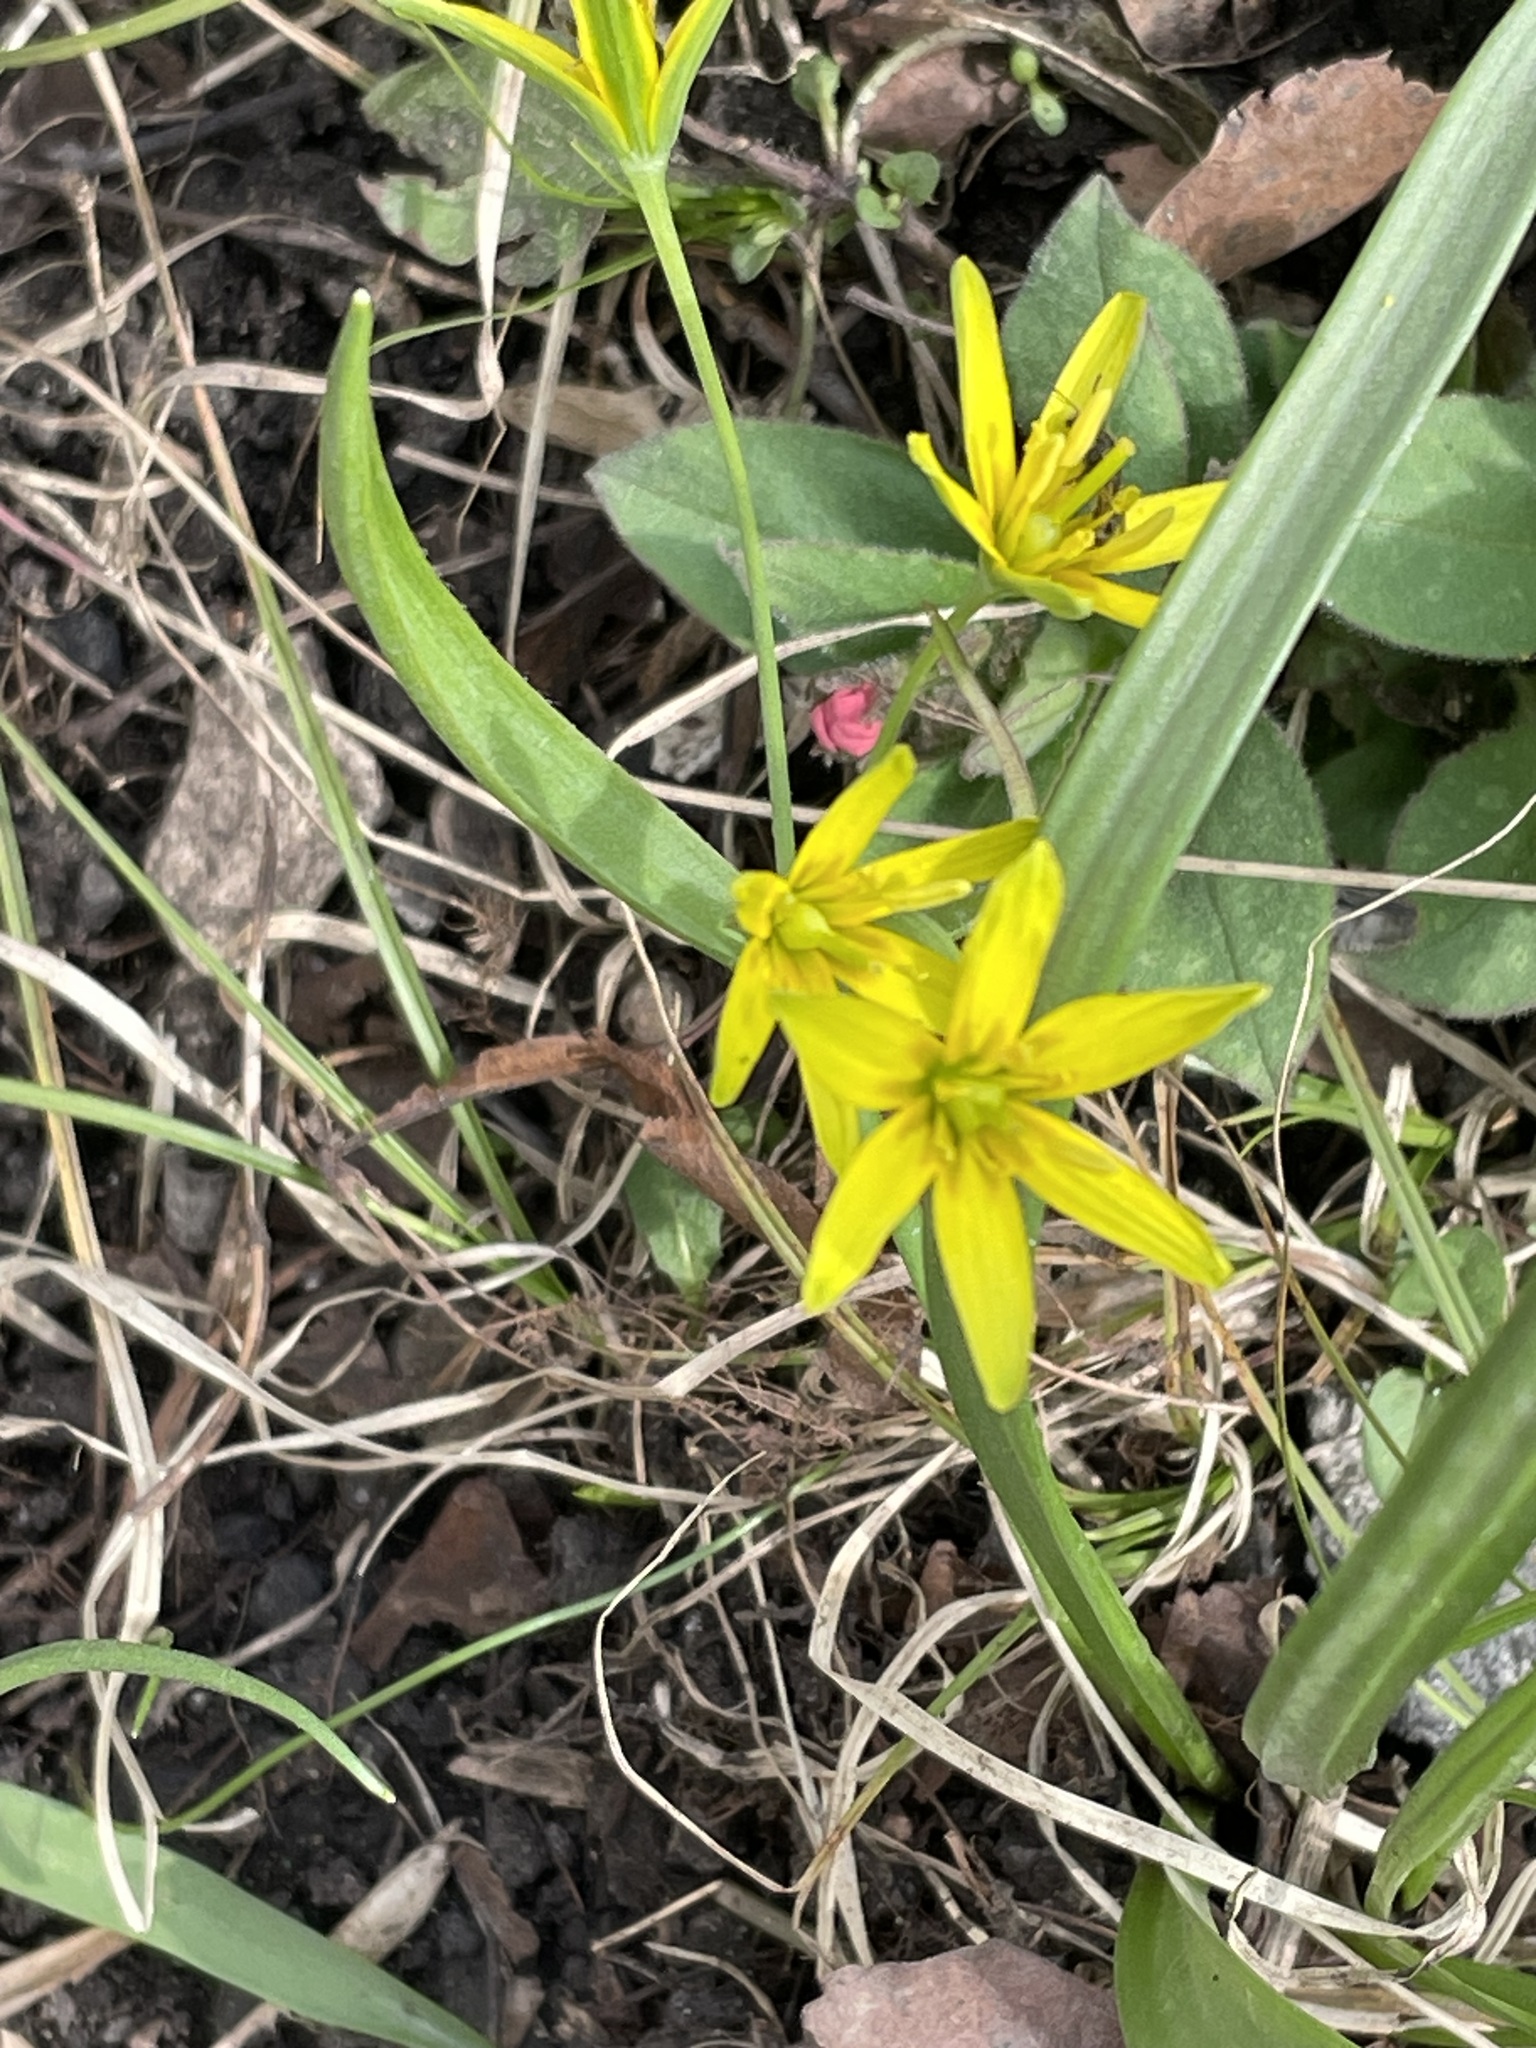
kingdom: Plantae
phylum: Tracheophyta
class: Liliopsida
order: Liliales
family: Liliaceae
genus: Gagea
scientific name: Gagea lutea
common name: Yellow star-of-bethlehem
